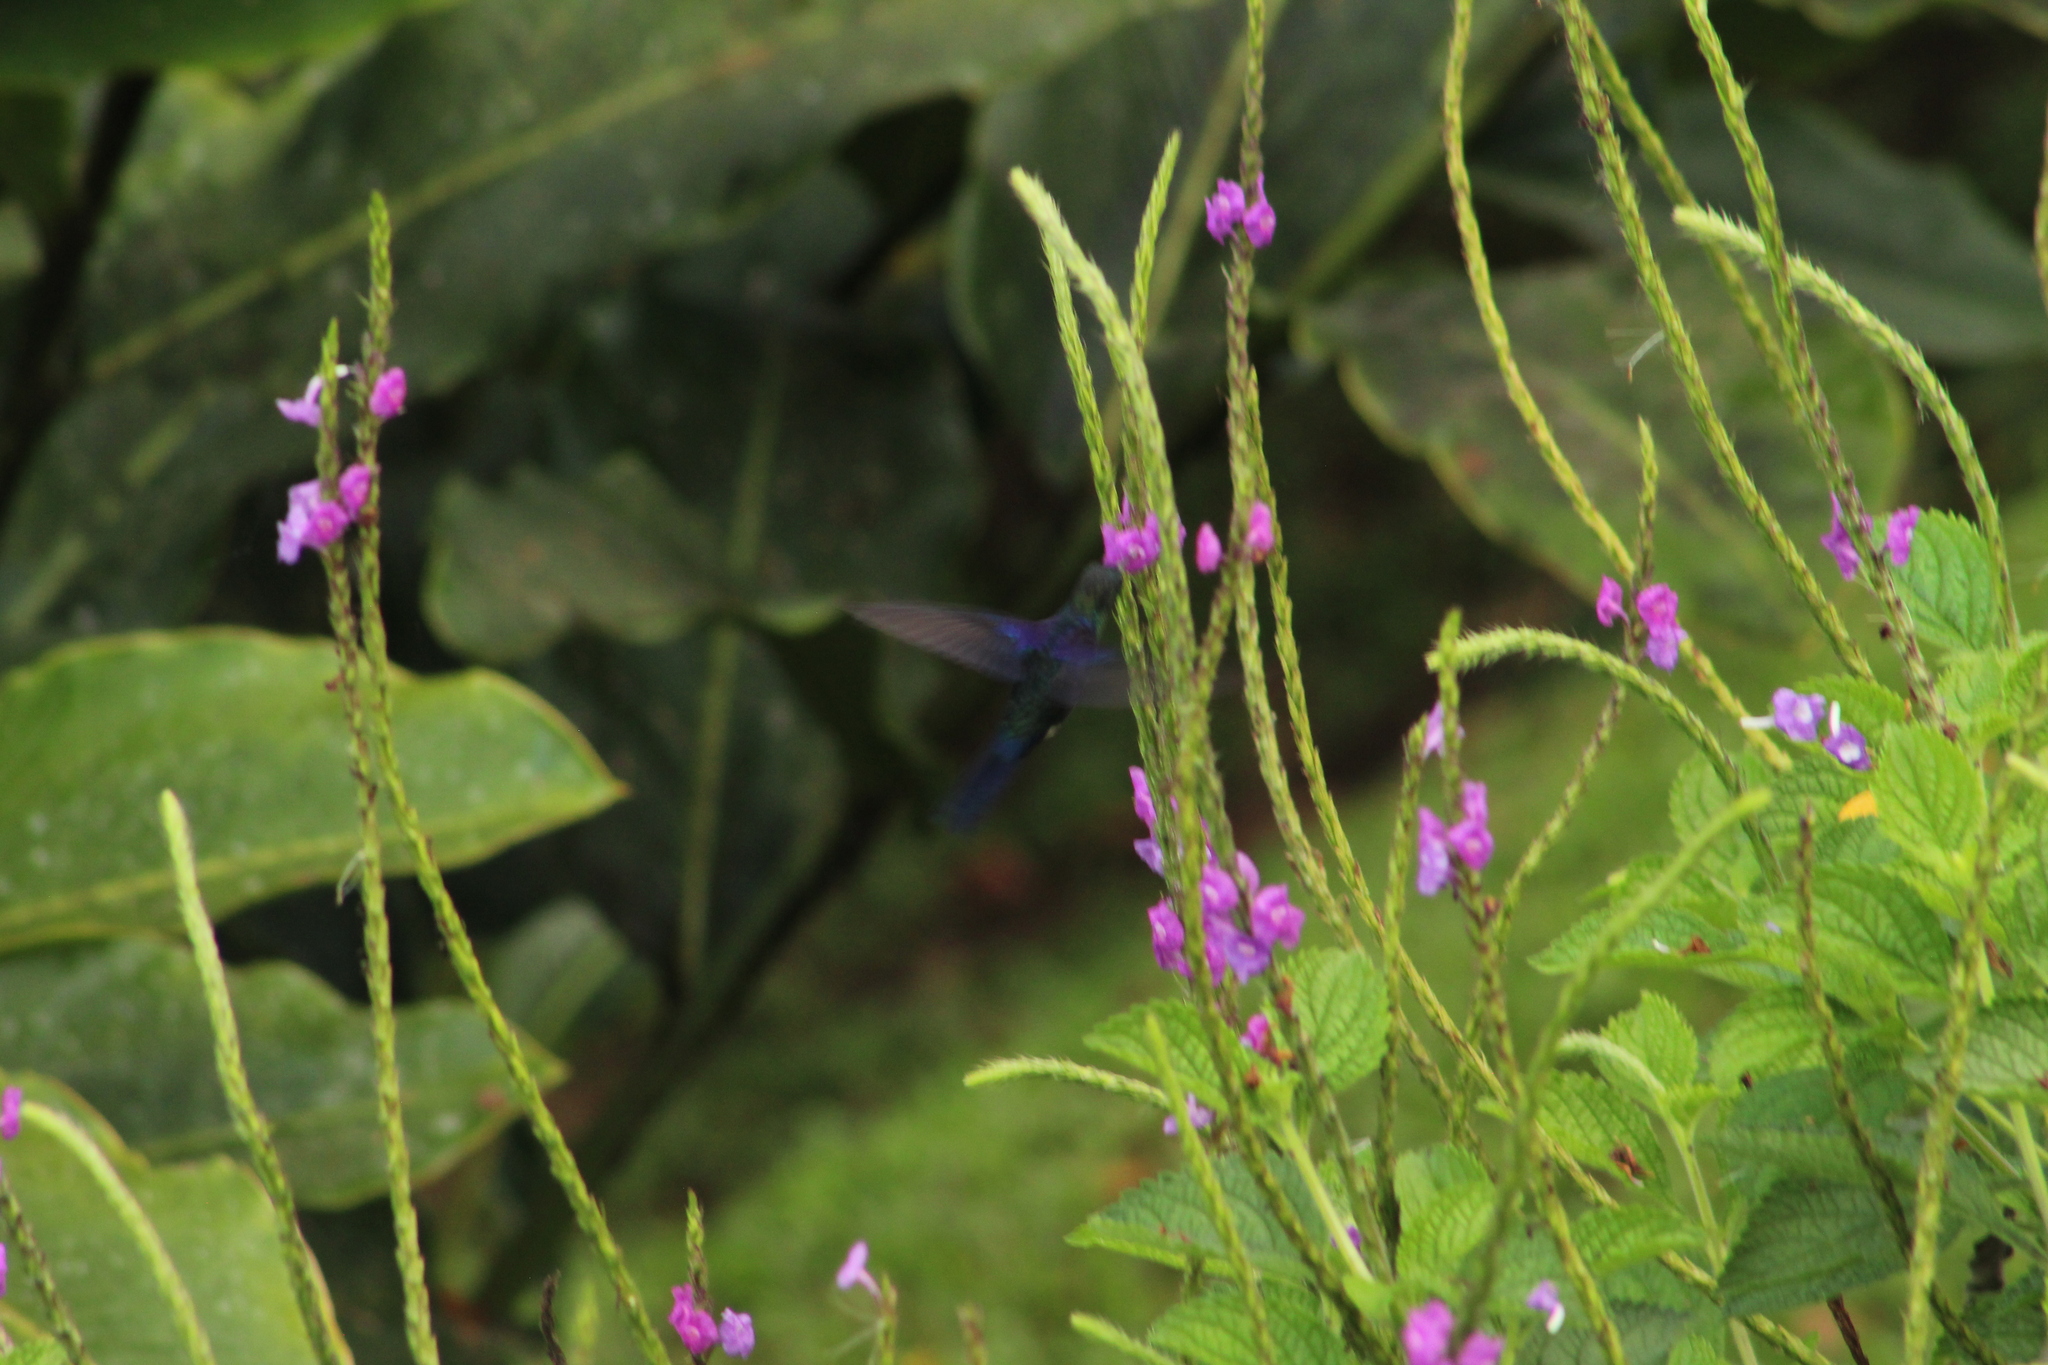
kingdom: Animalia
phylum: Chordata
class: Aves
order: Apodiformes
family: Trochilidae
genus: Thalurania
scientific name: Thalurania colombica
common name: Crowned woodnymph
